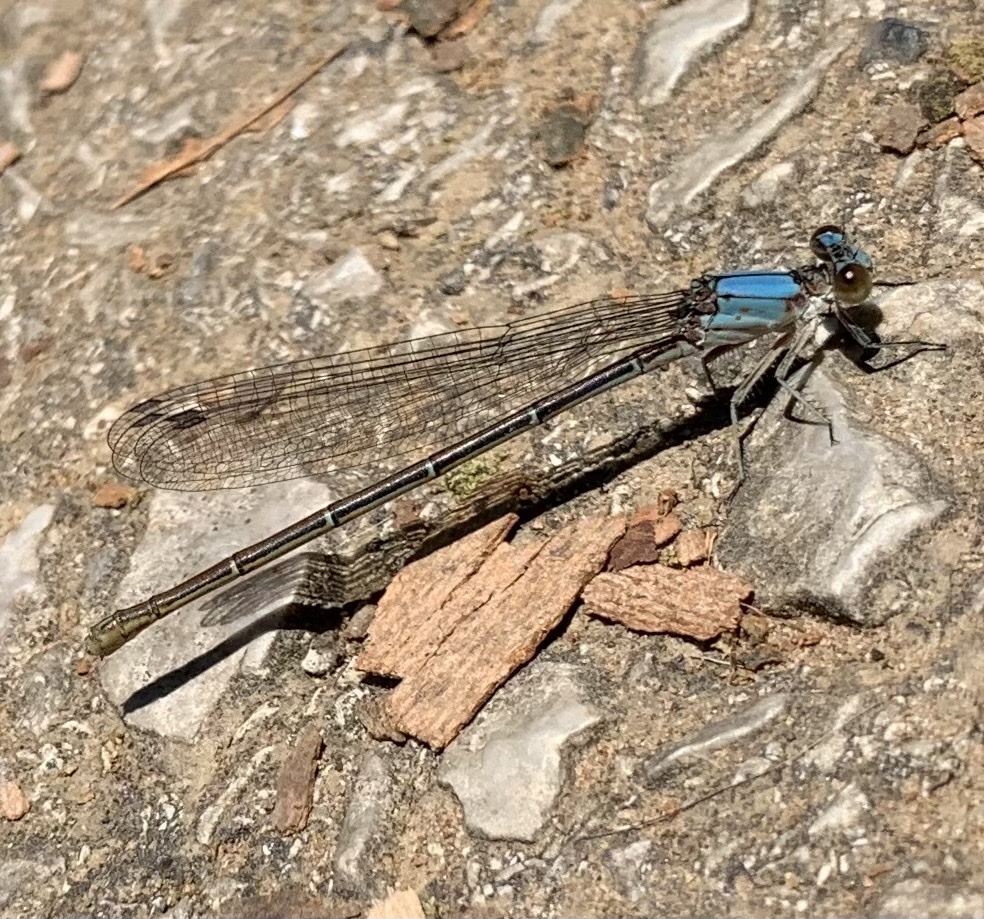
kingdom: Animalia
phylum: Arthropoda
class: Insecta
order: Odonata
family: Coenagrionidae
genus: Argia
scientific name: Argia moesta
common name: Powdered dancer
